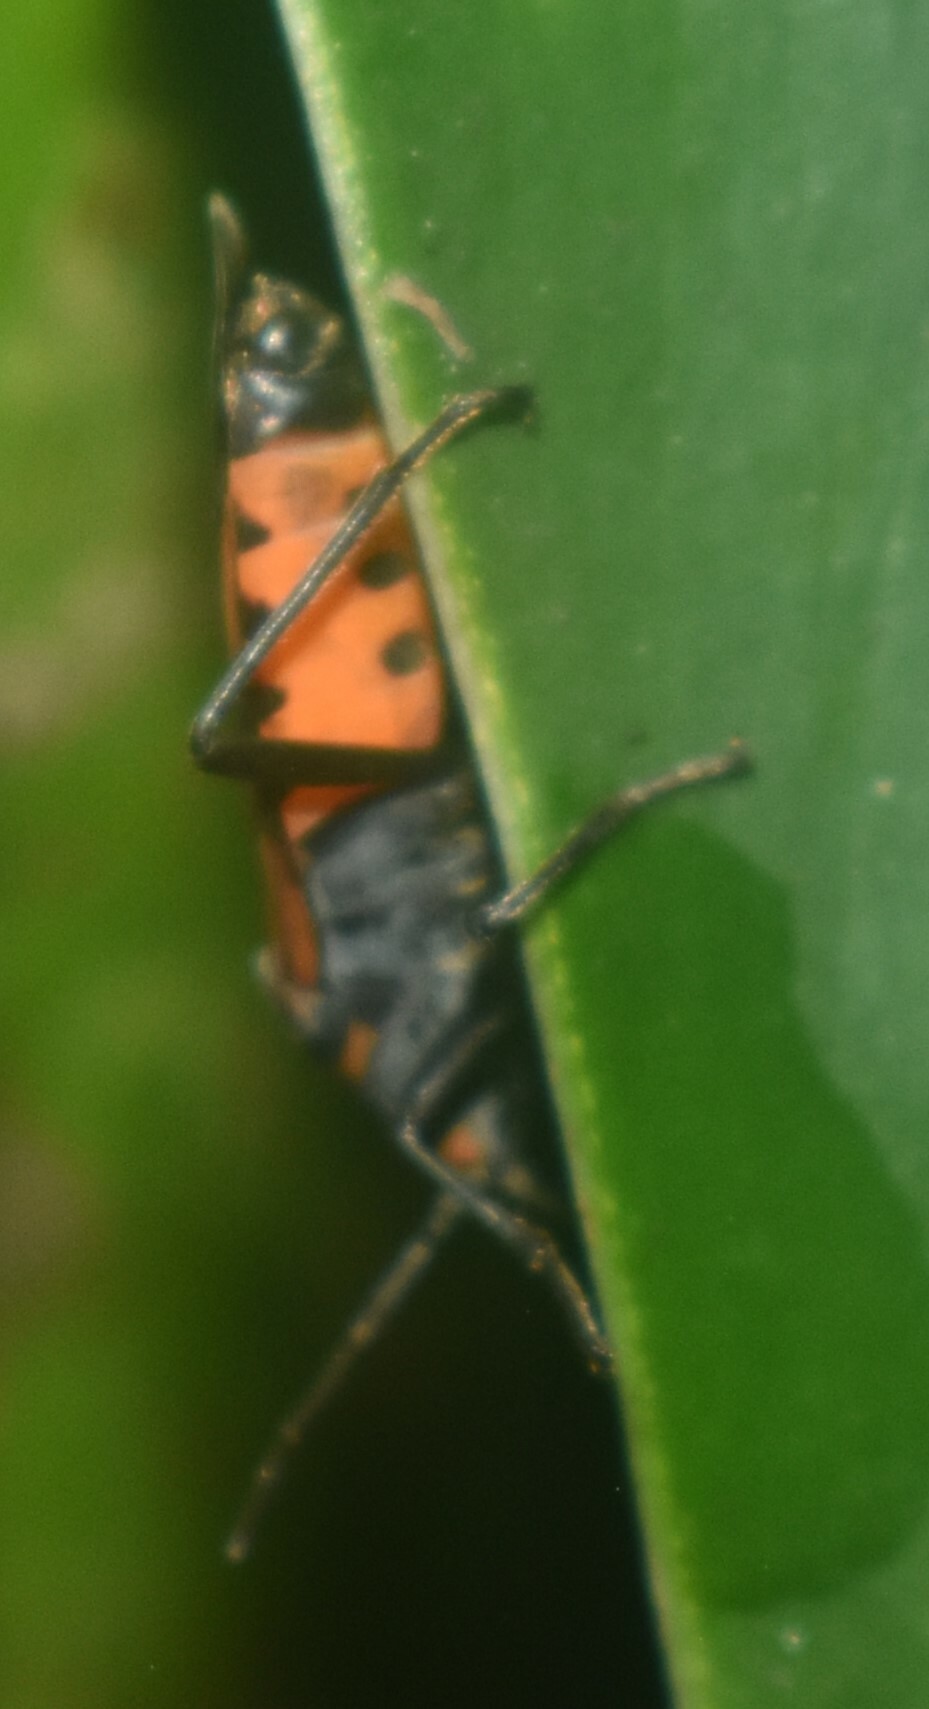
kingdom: Animalia
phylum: Arthropoda
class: Insecta
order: Hemiptera
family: Lygaeidae
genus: Lygaeus
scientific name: Lygaeus analis
